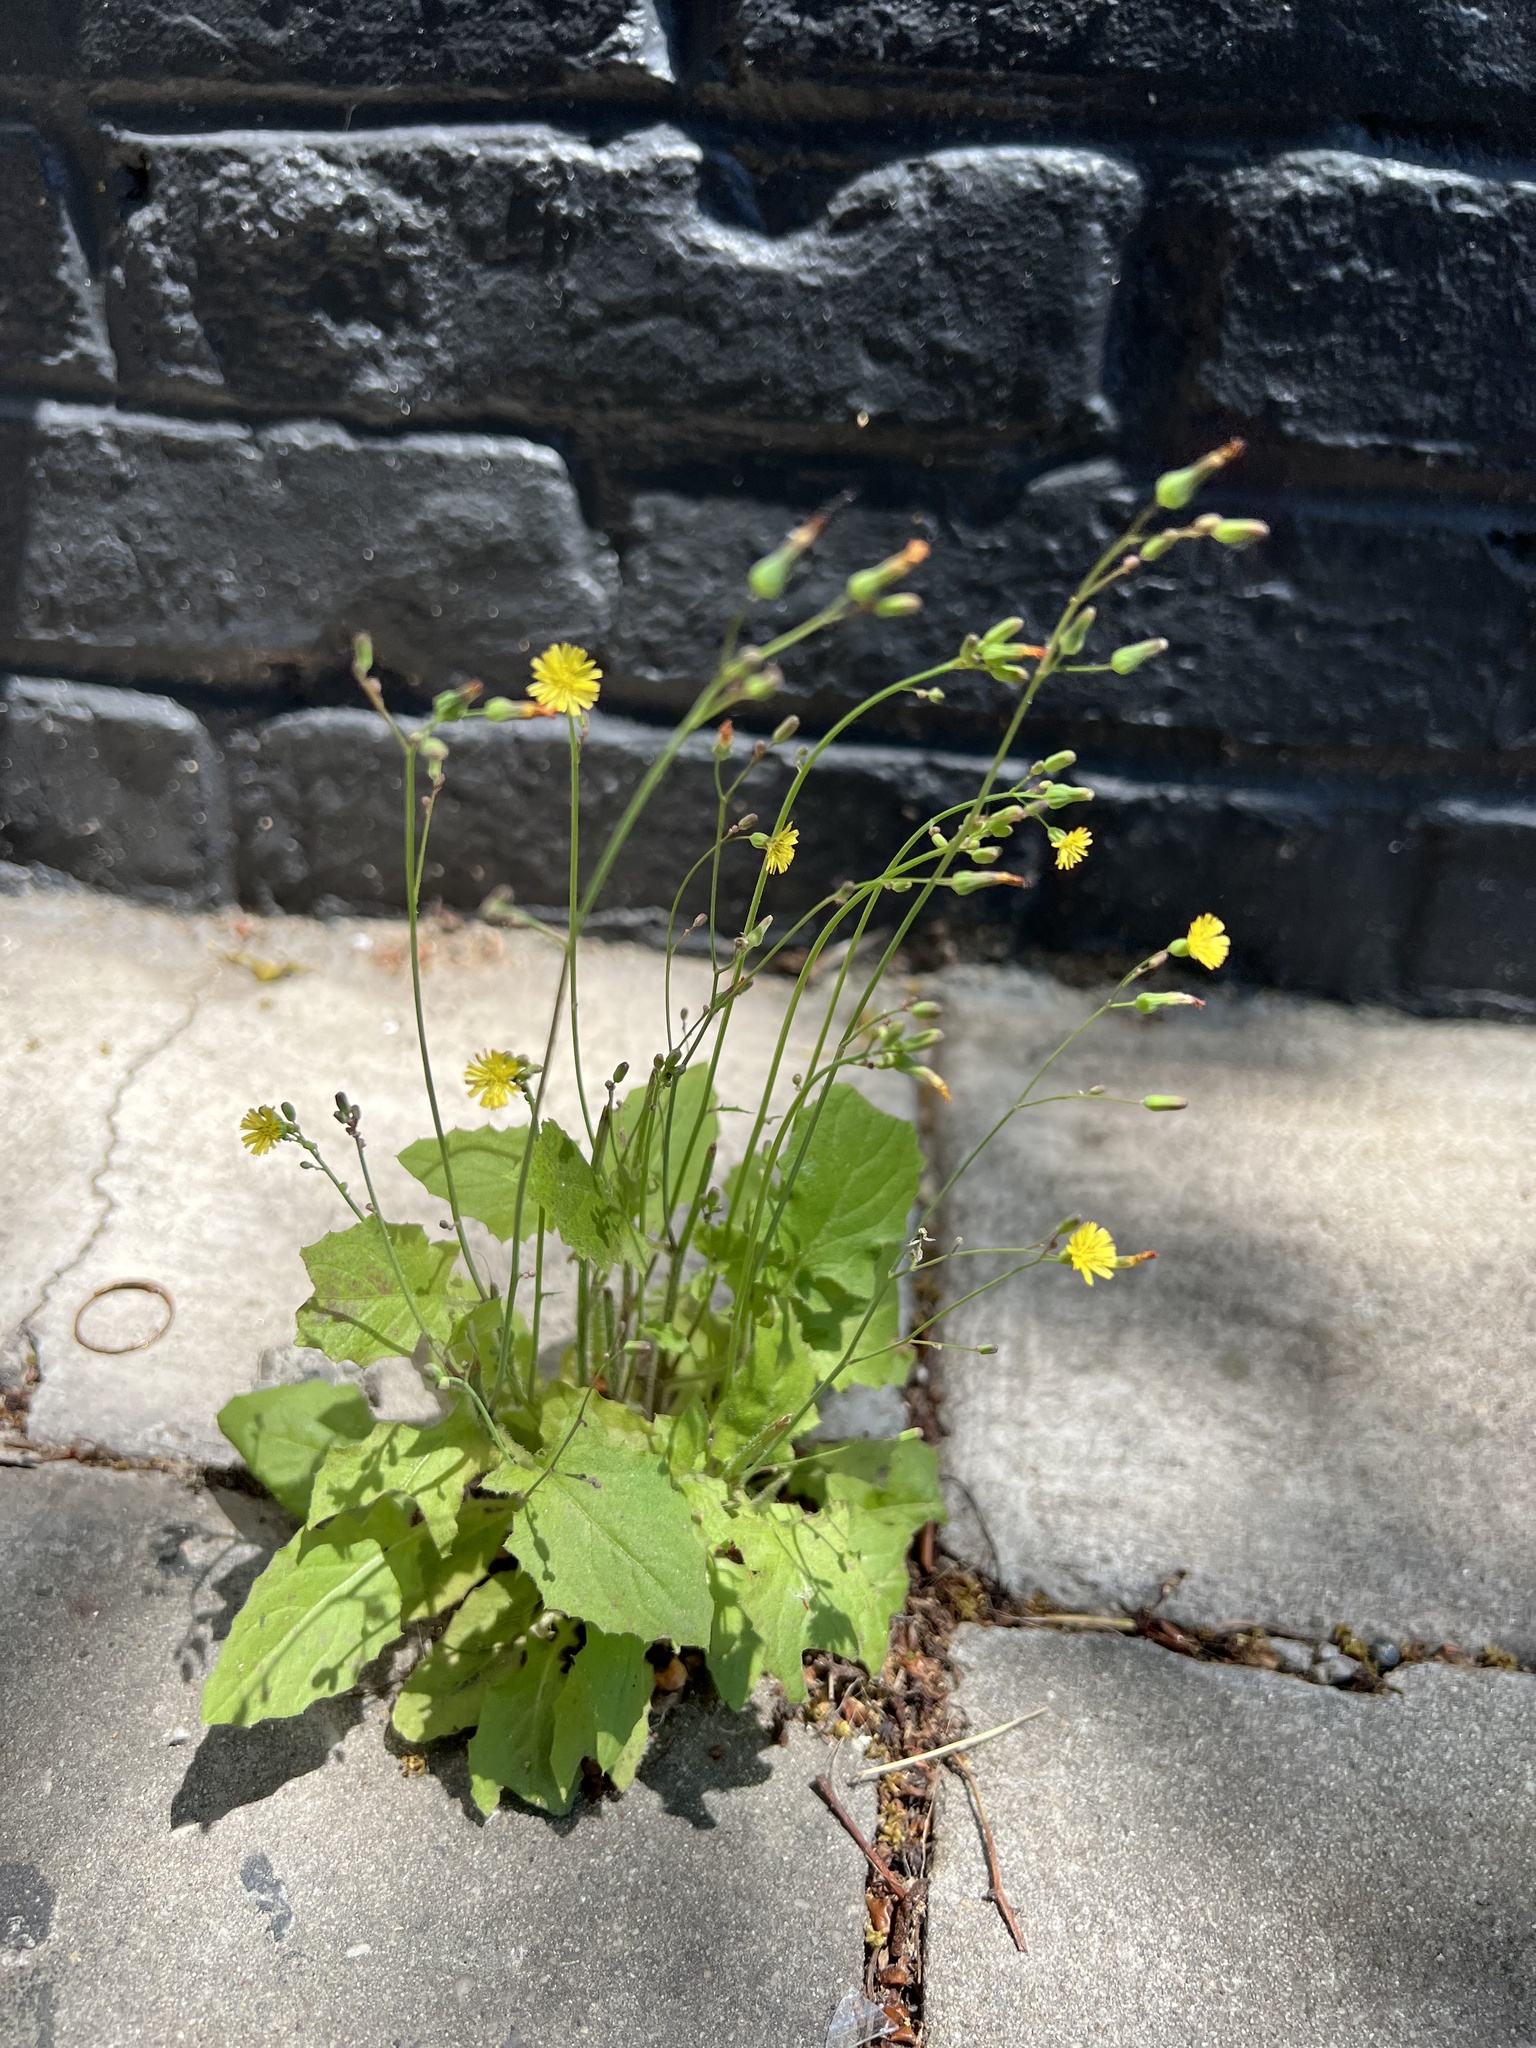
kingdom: Plantae
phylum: Tracheophyta
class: Magnoliopsida
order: Asterales
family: Asteraceae
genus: Youngia
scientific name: Youngia japonica
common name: Oriental false hawksbeard
